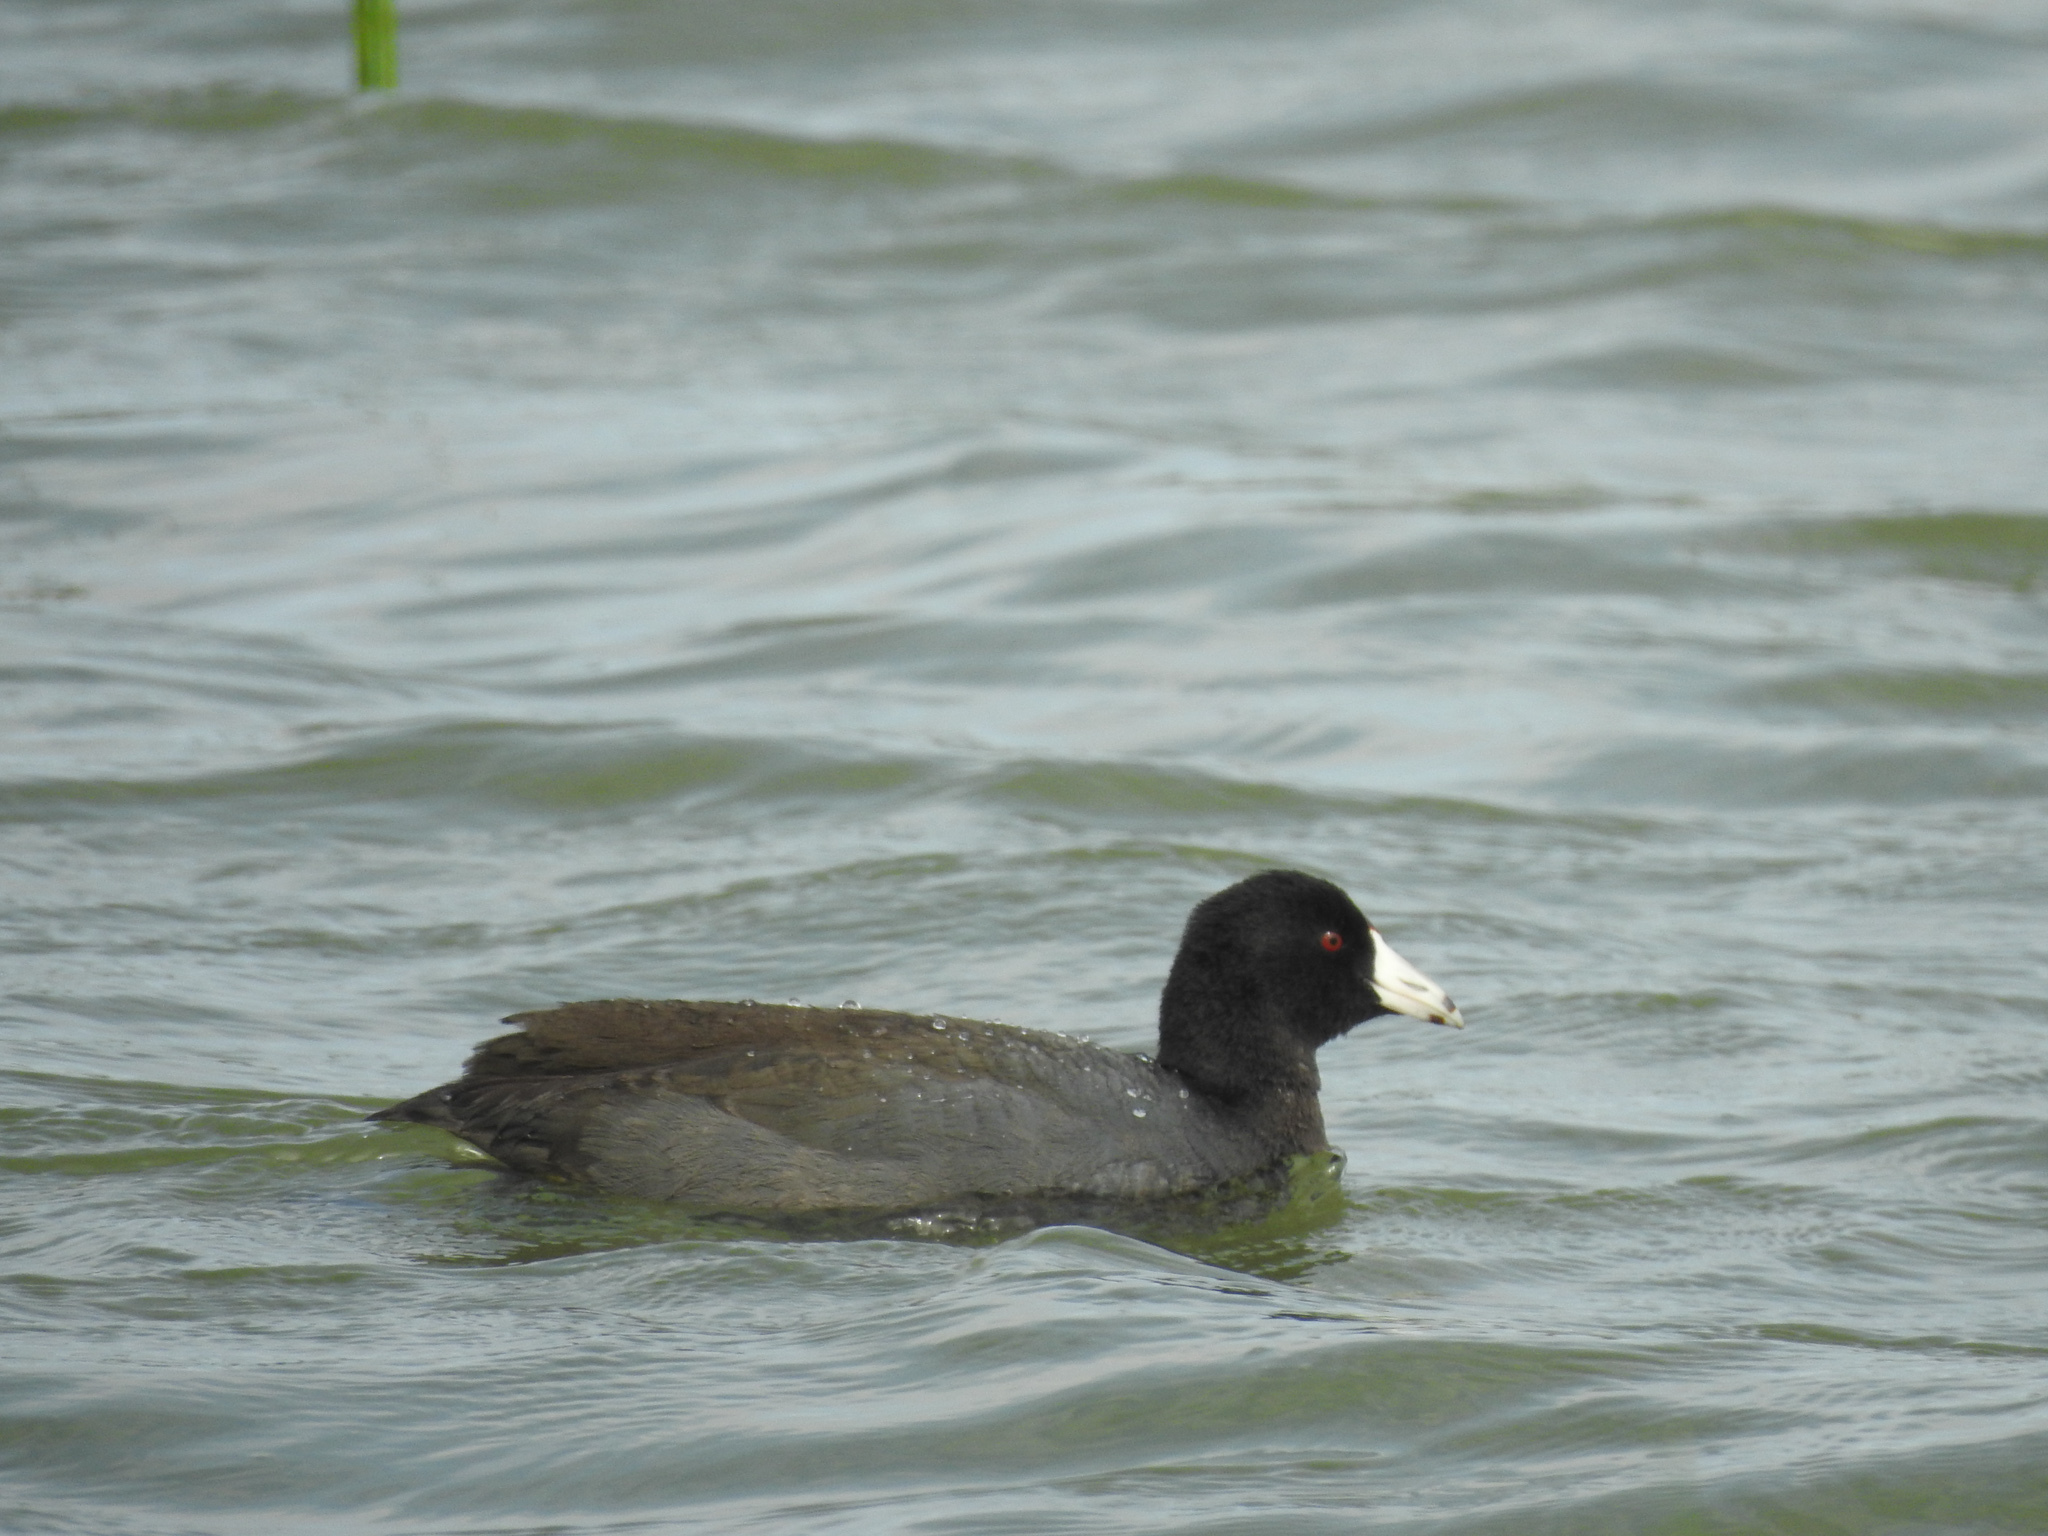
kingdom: Animalia
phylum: Chordata
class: Aves
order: Gruiformes
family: Rallidae
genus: Fulica
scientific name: Fulica americana
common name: American coot
